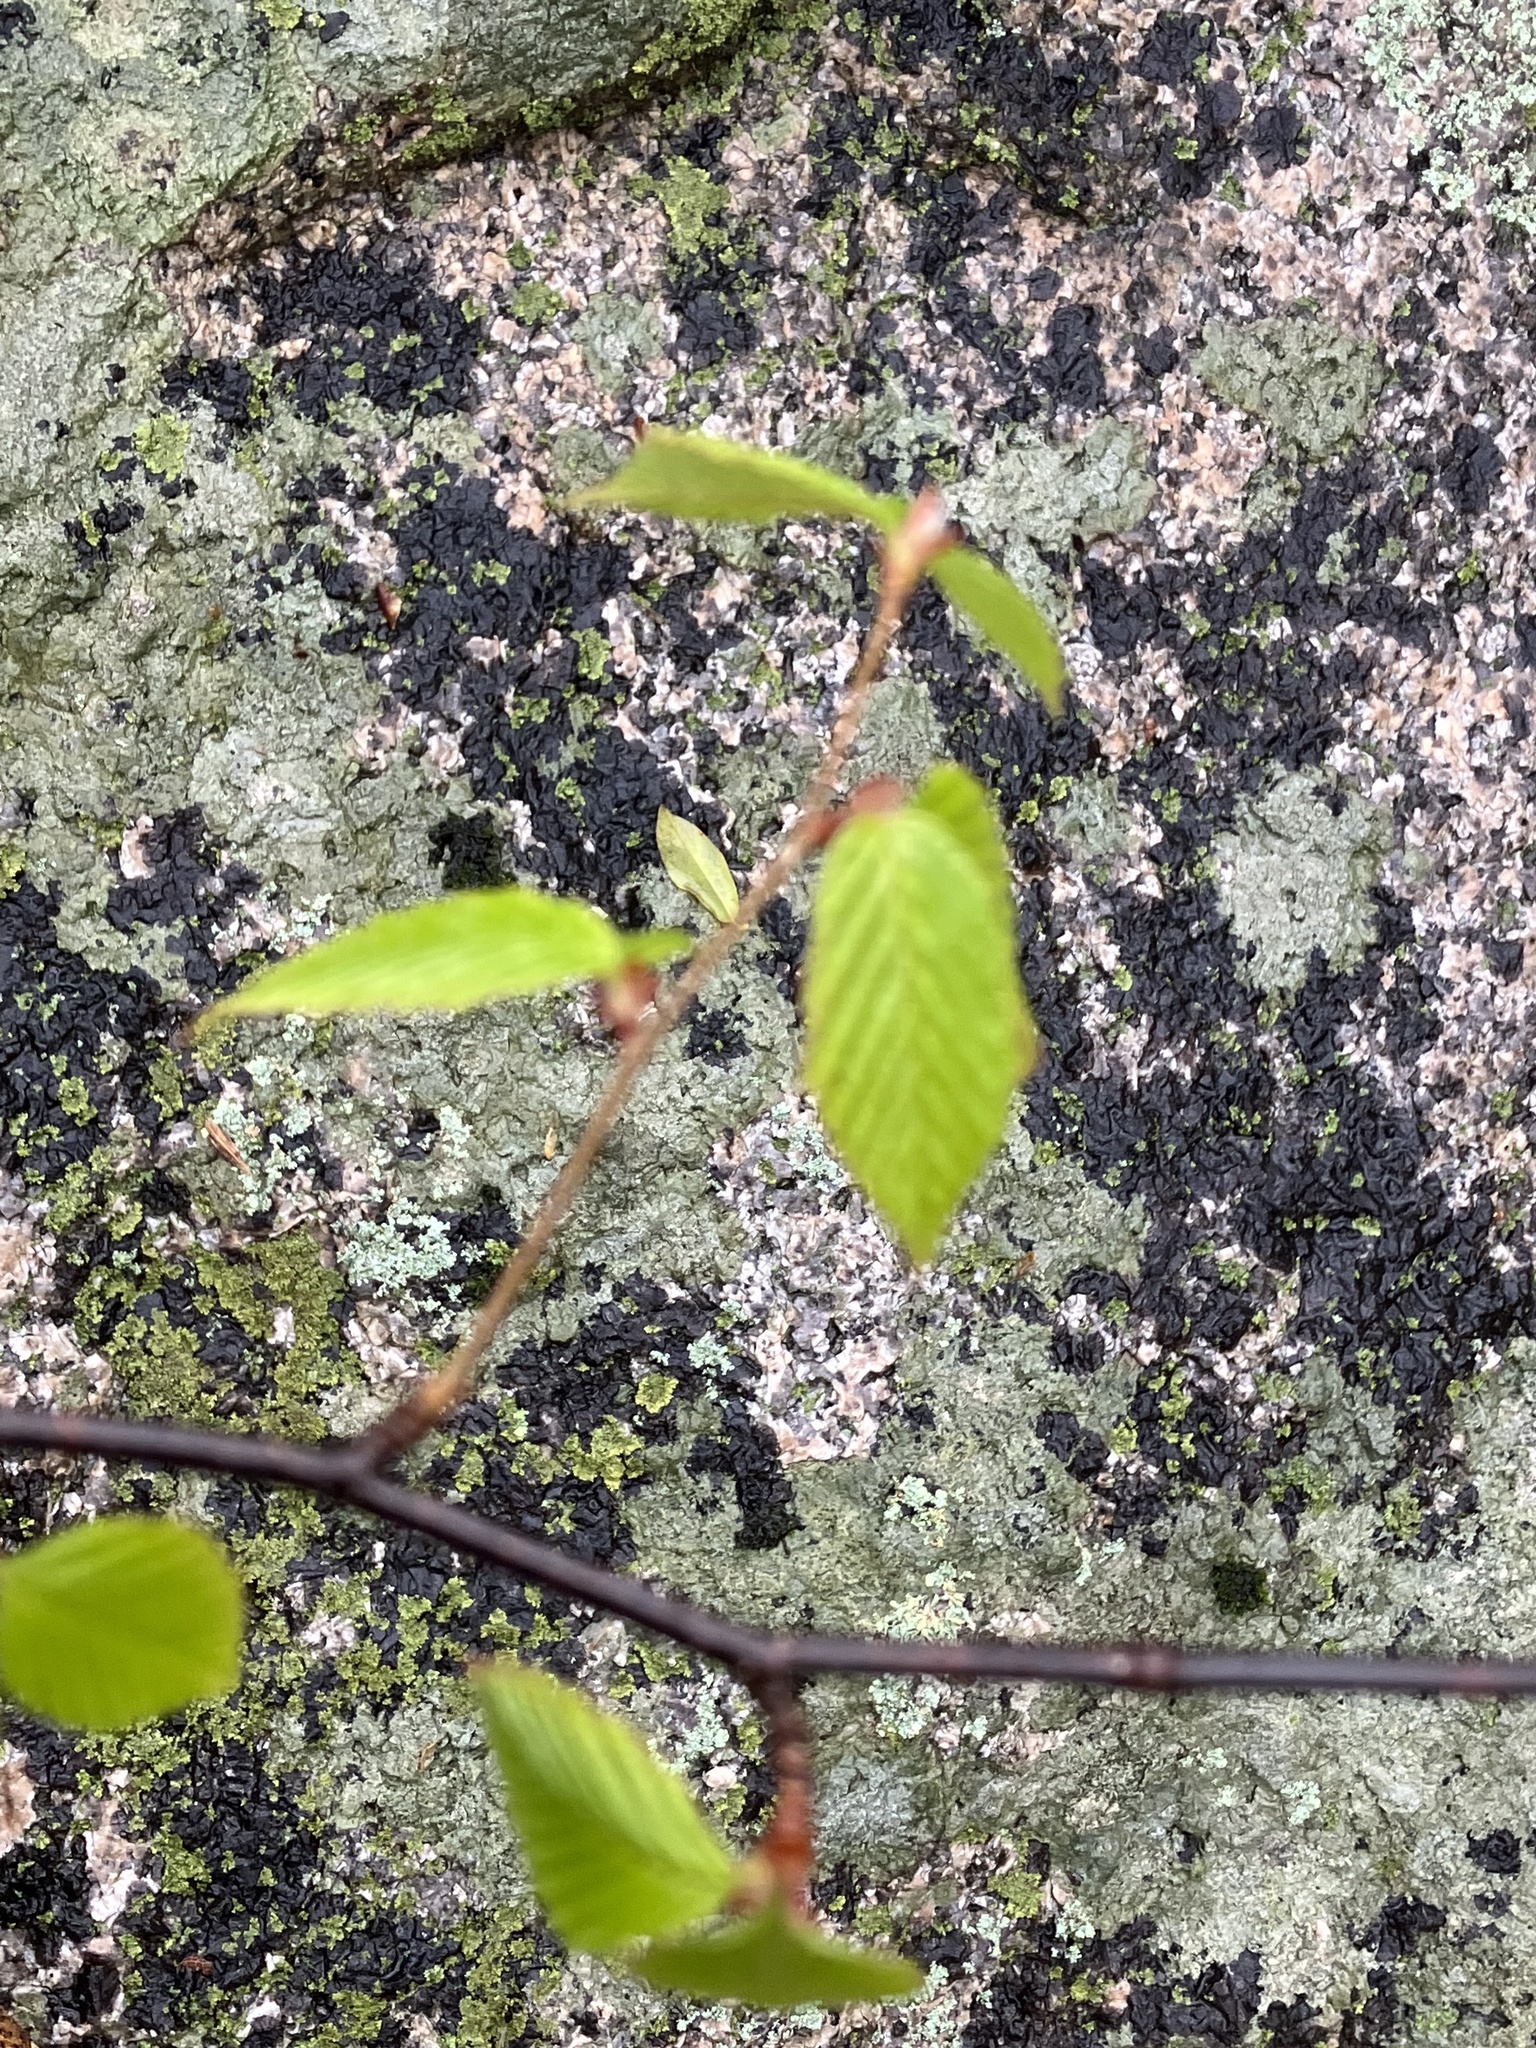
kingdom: Plantae
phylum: Tracheophyta
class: Magnoliopsida
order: Fagales
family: Fagaceae
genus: Fagus
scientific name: Fagus grandifolia
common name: American beech
